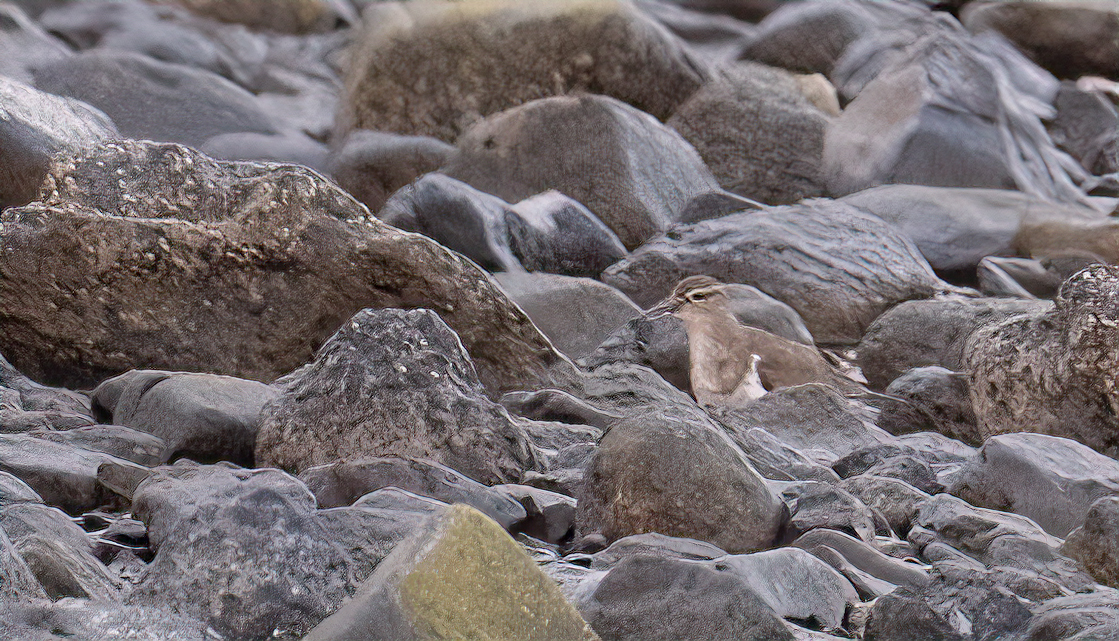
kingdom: Animalia
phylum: Chordata
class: Aves
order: Charadriiformes
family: Scolopacidae
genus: Actitis
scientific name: Actitis hypoleucos
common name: Common sandpiper
